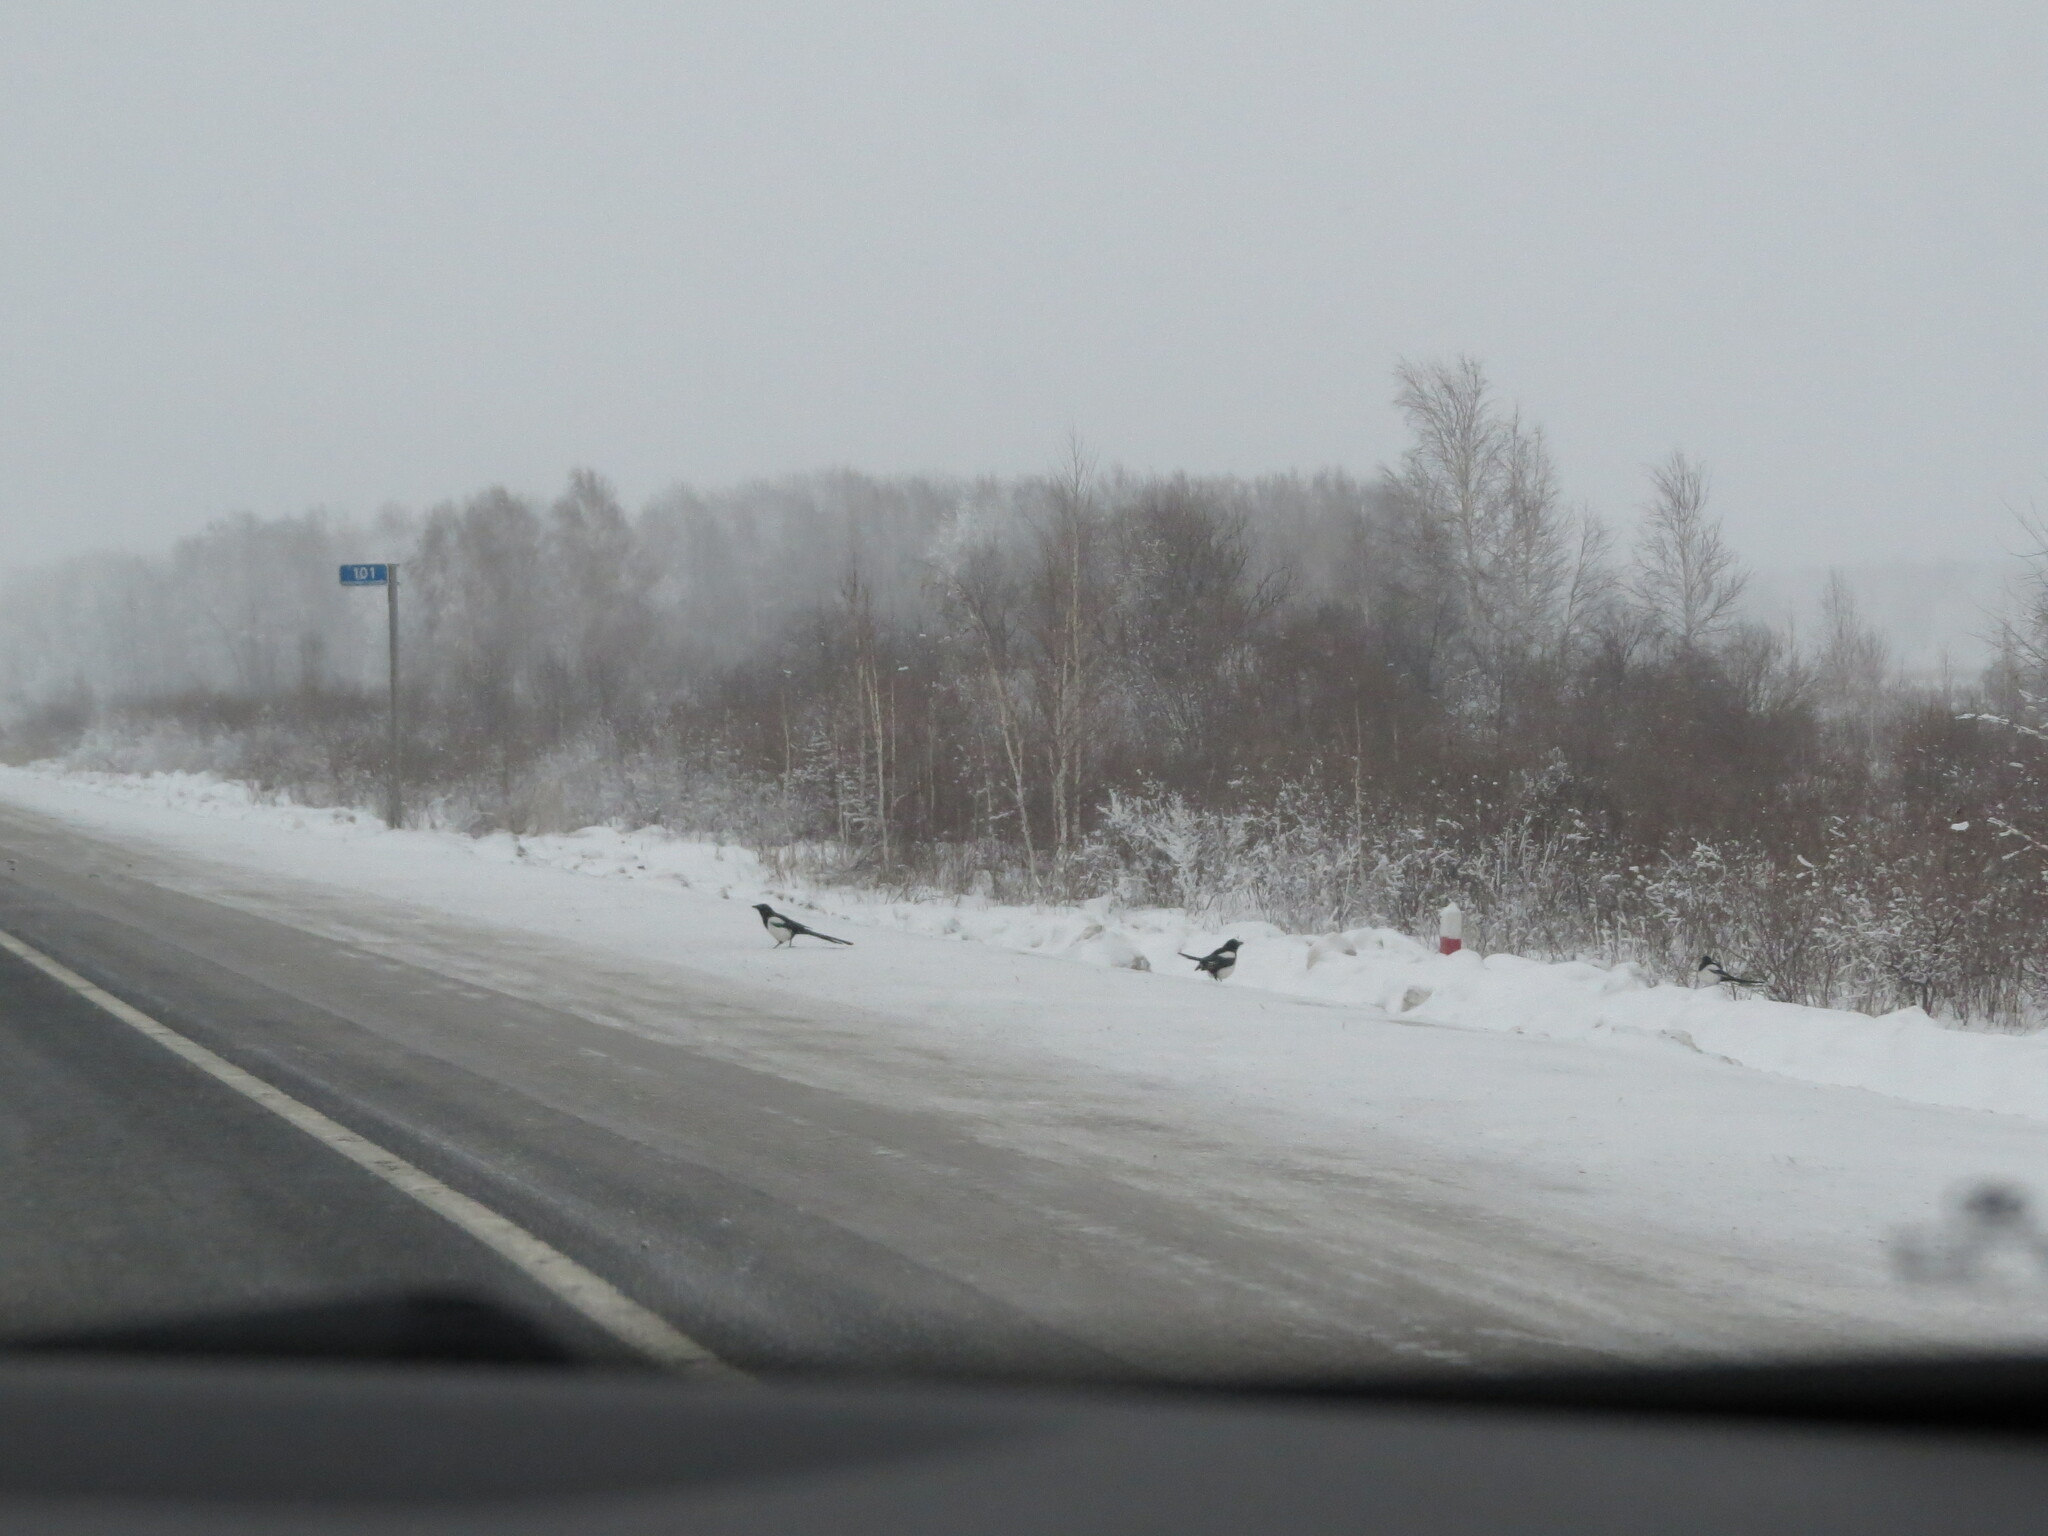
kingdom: Animalia
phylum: Chordata
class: Aves
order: Passeriformes
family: Corvidae
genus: Pica
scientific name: Pica pica
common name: Eurasian magpie
